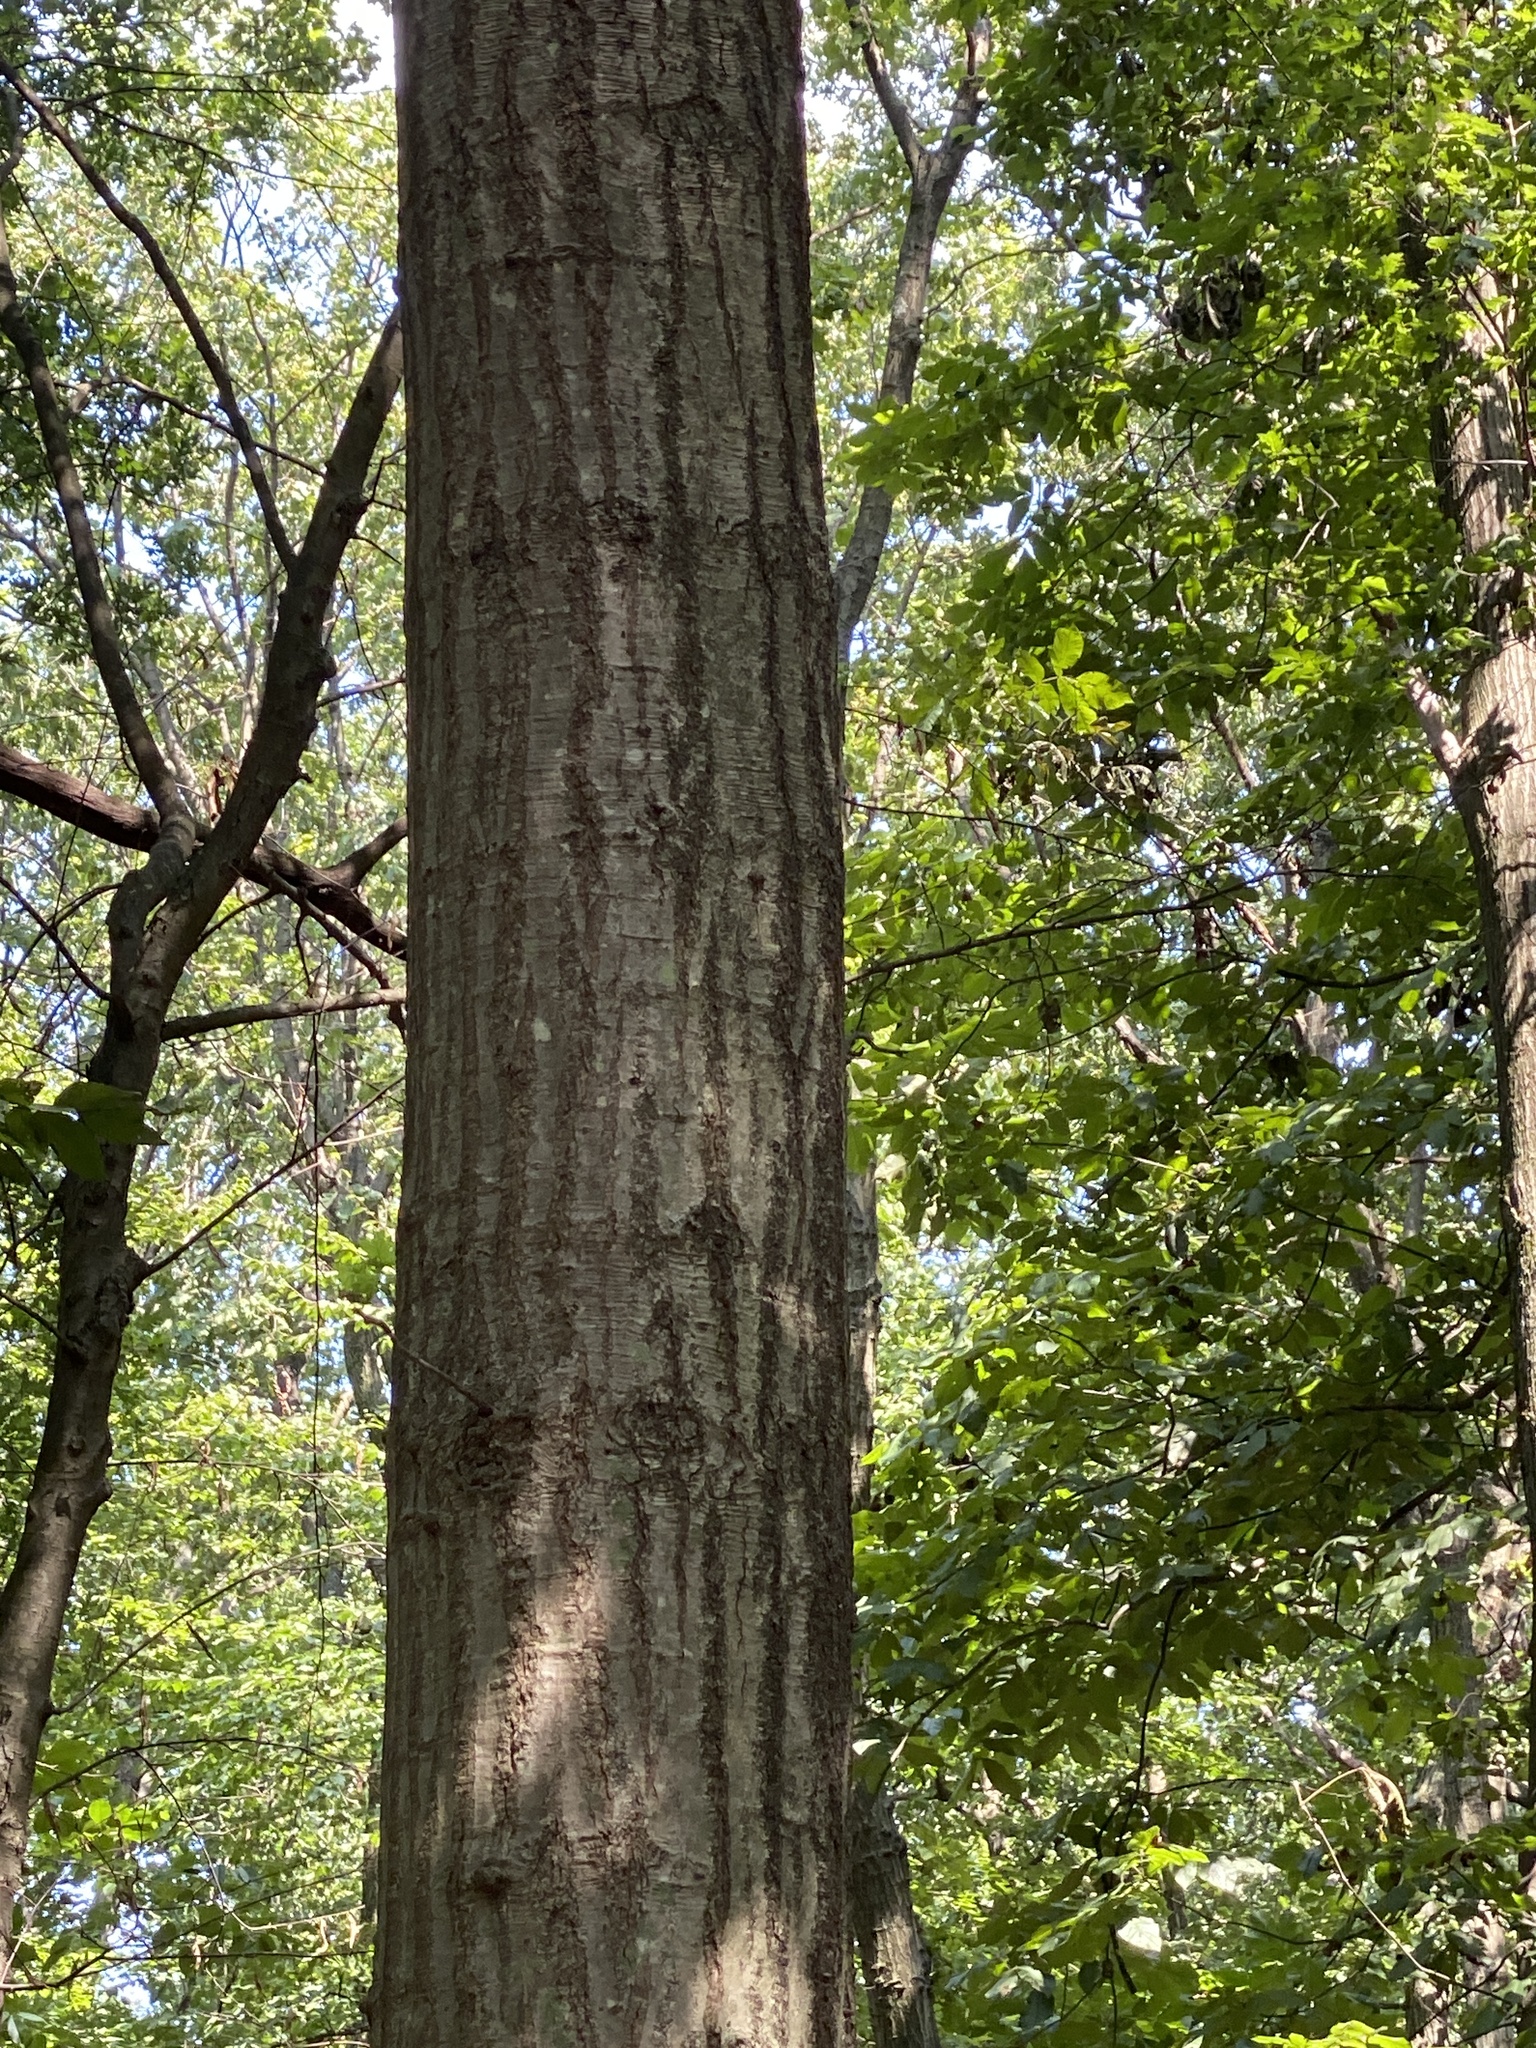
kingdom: Plantae
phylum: Tracheophyta
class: Magnoliopsida
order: Fagales
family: Fagaceae
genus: Quercus
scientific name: Quercus rubra
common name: Red oak
